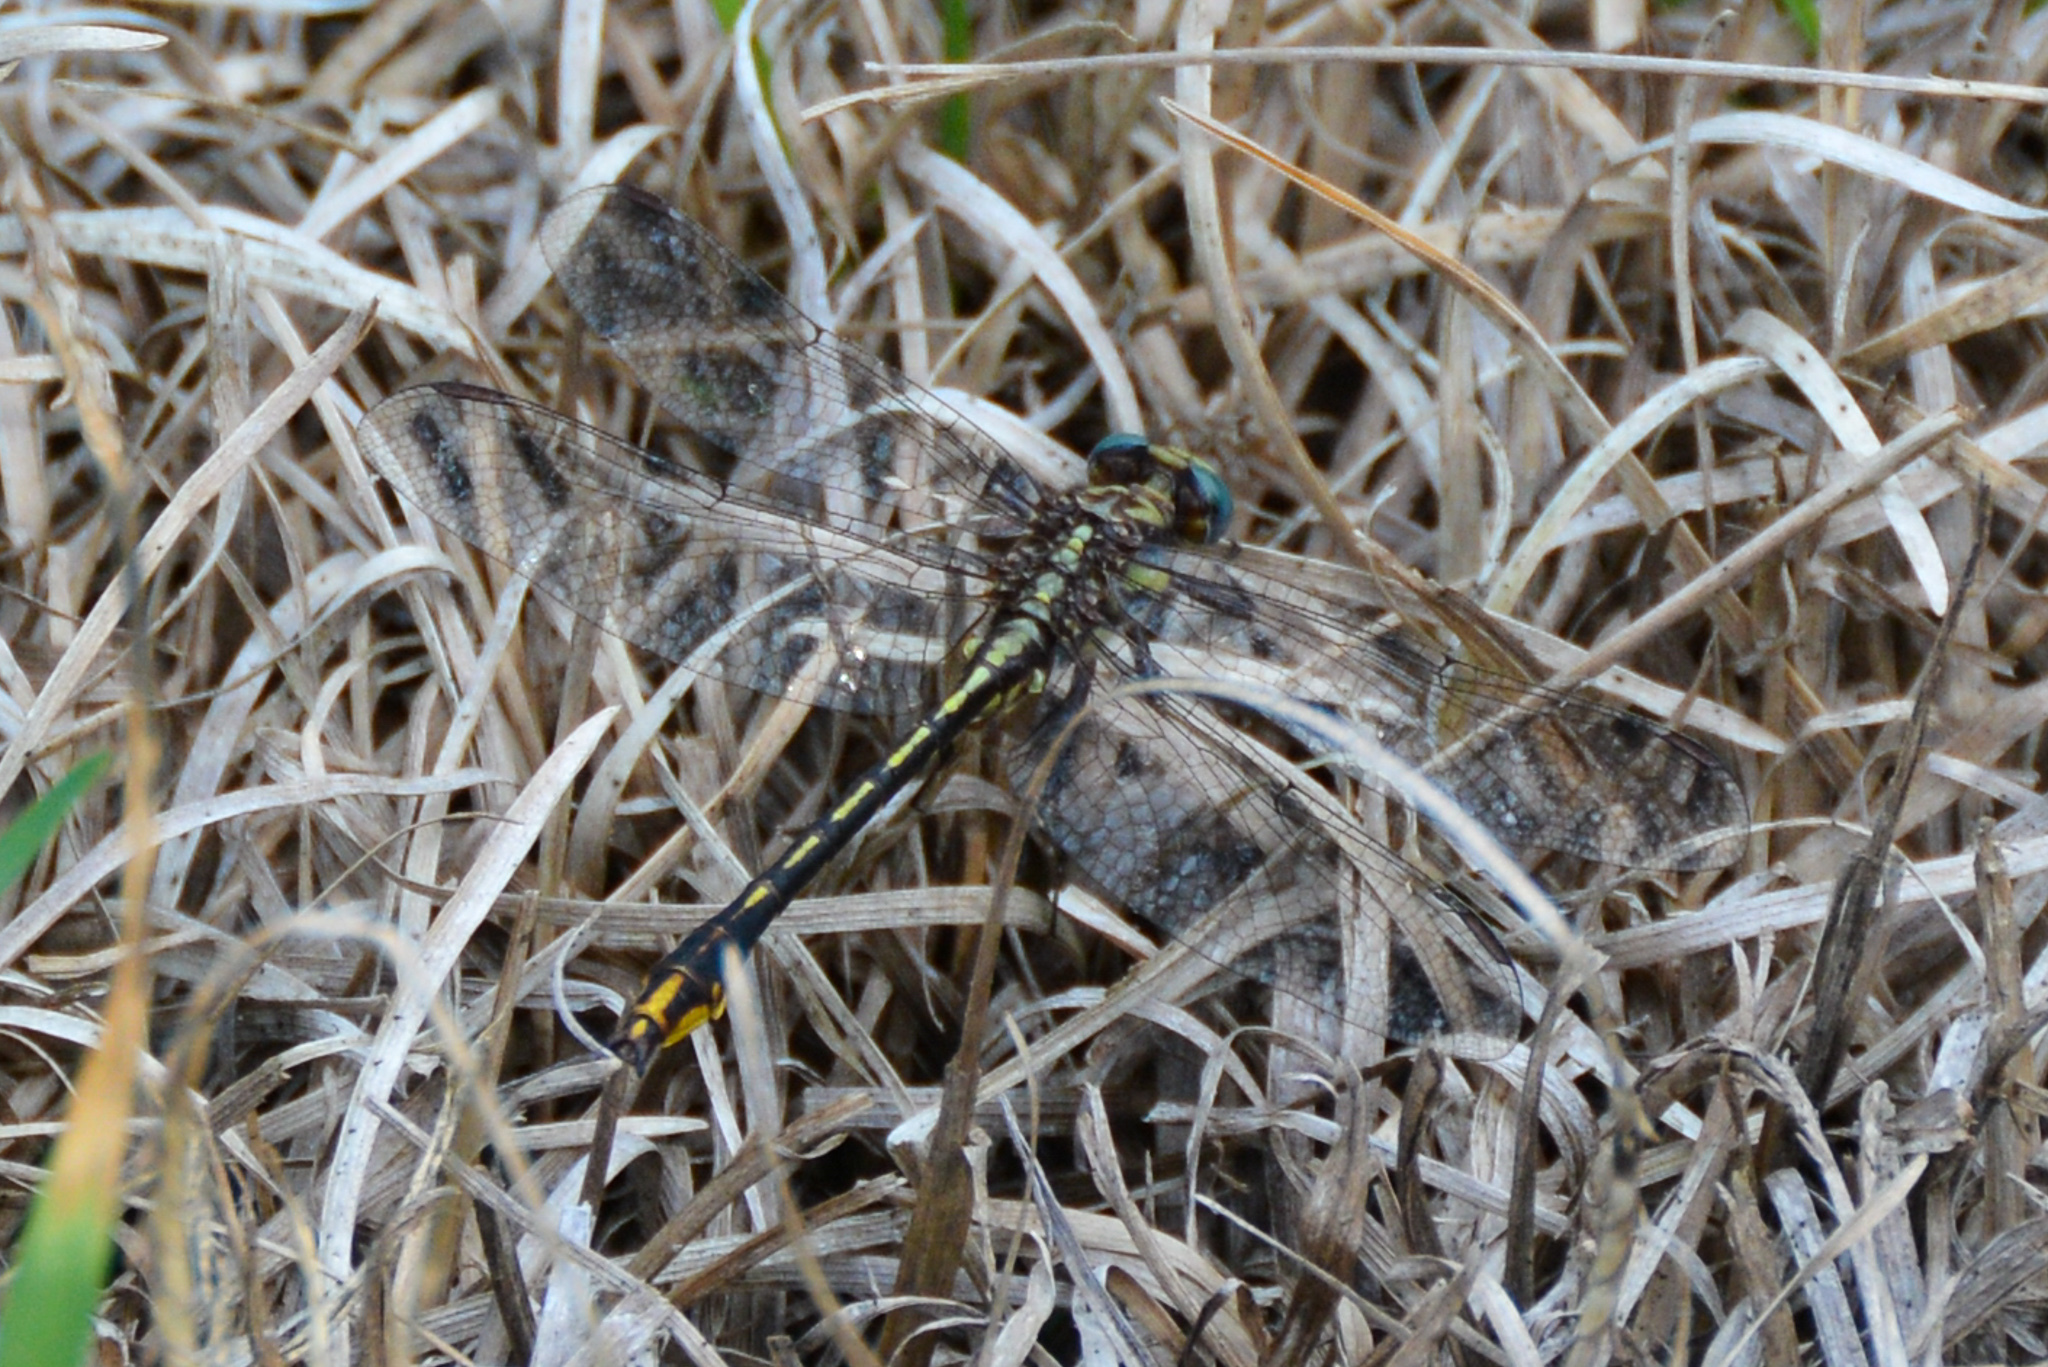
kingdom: Animalia
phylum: Arthropoda
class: Insecta
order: Odonata
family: Gomphidae
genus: Phanogomphus
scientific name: Phanogomphus exilis
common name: Lancet clubtail
